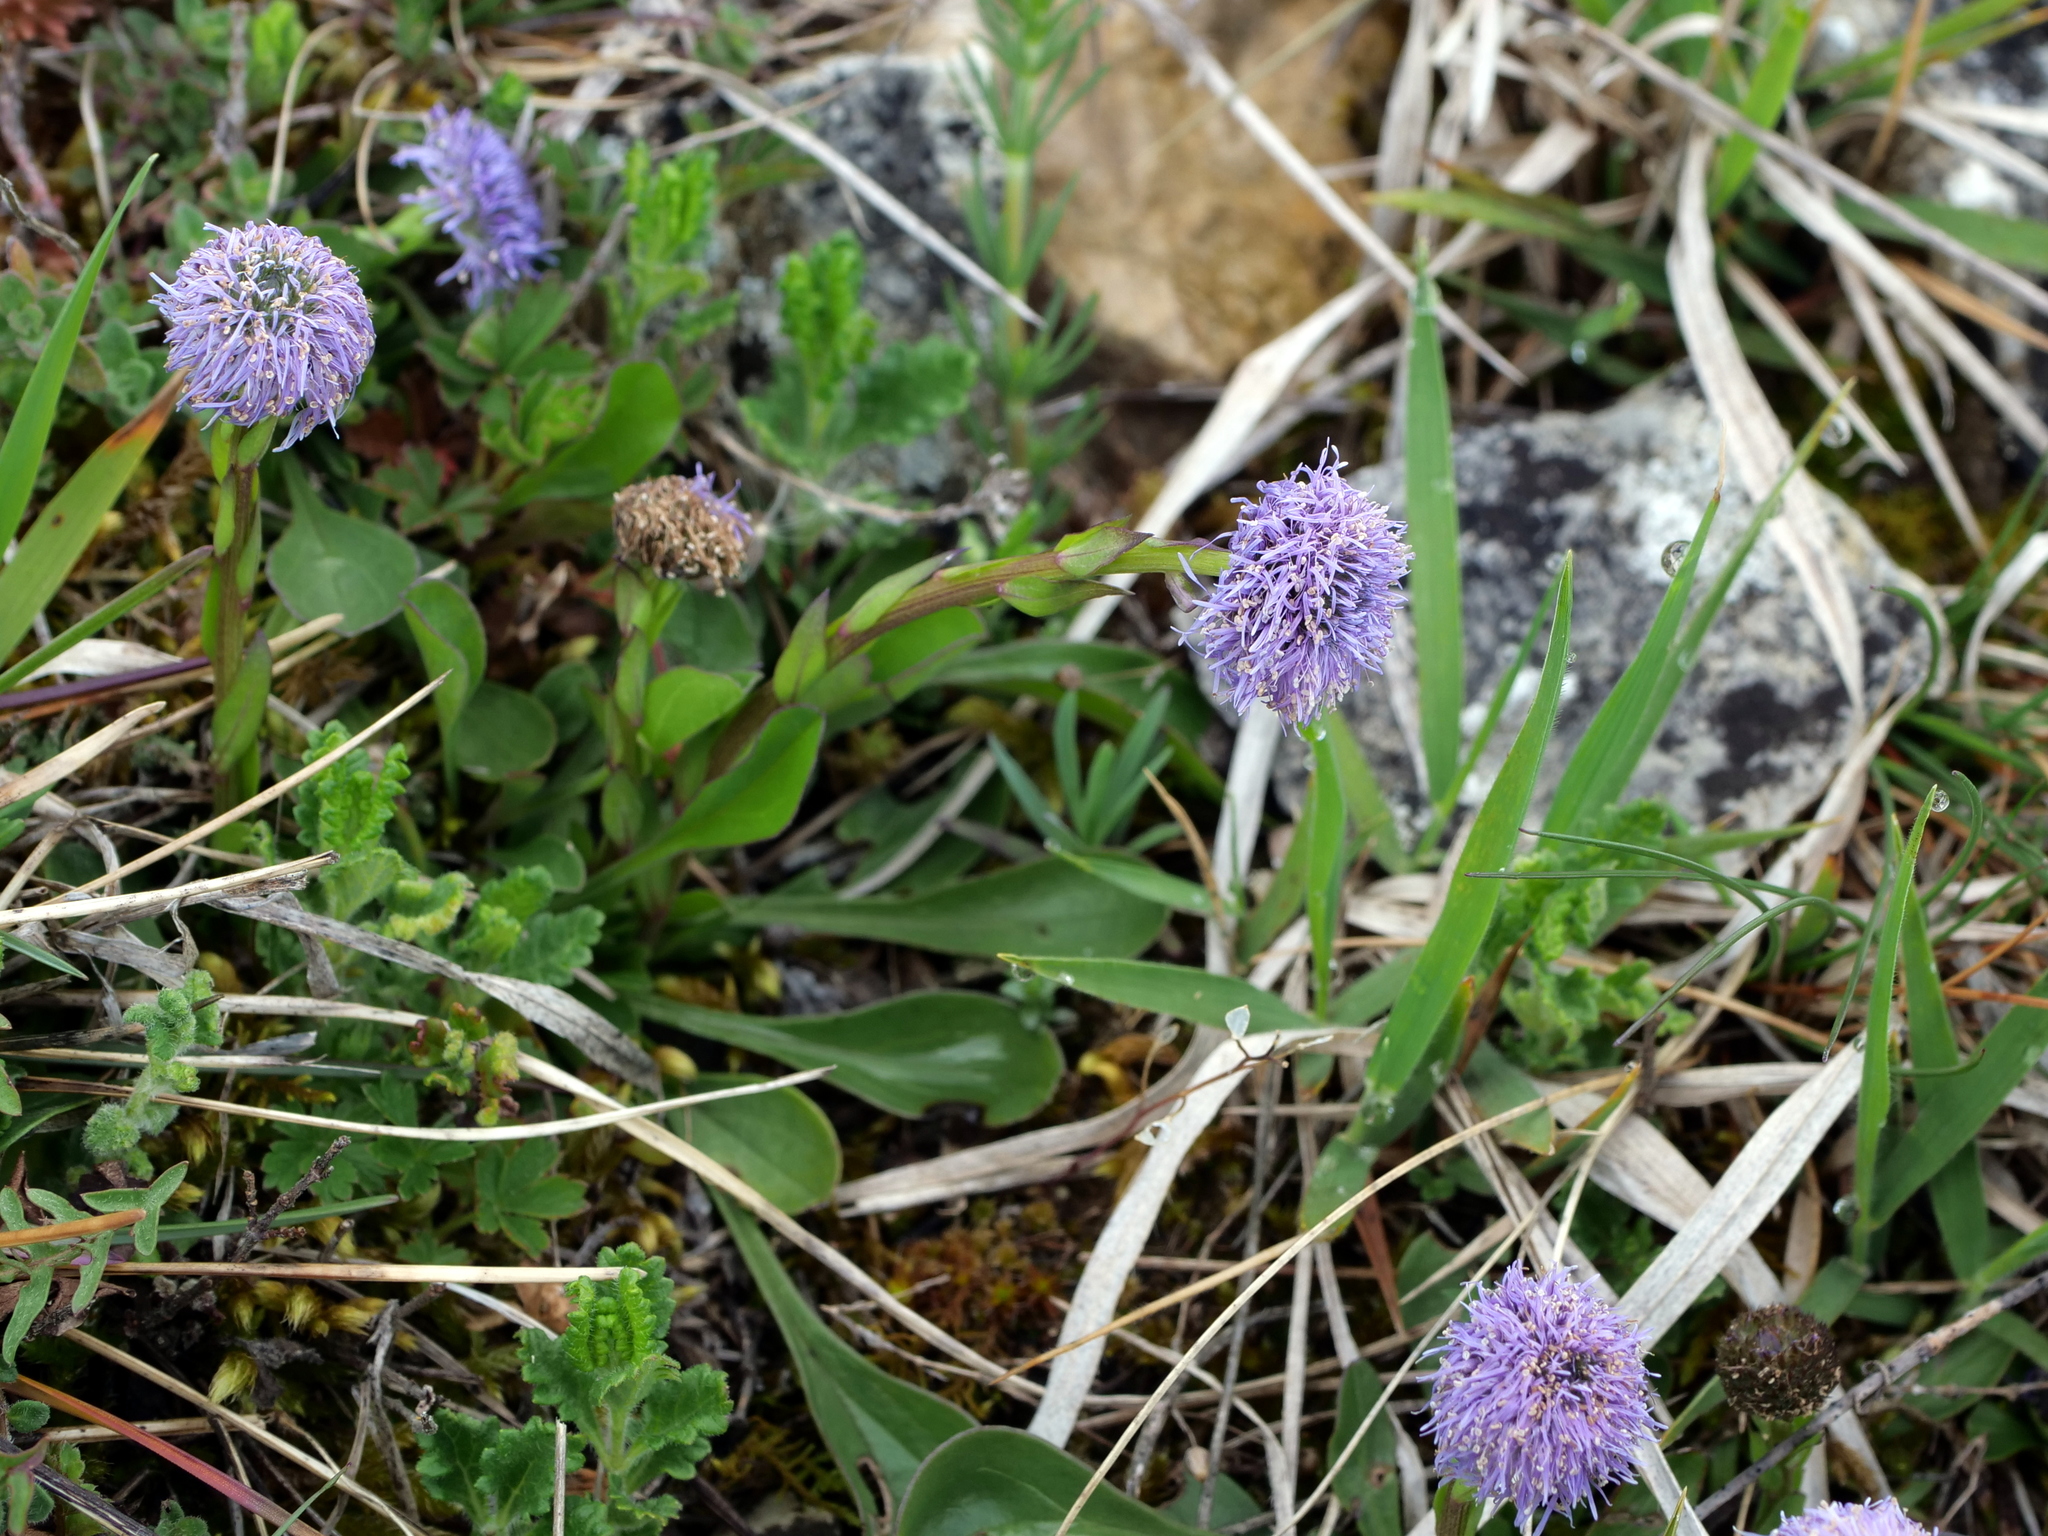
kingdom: Plantae
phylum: Tracheophyta
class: Magnoliopsida
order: Lamiales
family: Plantaginaceae
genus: Globularia
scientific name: Globularia bisnagarica
